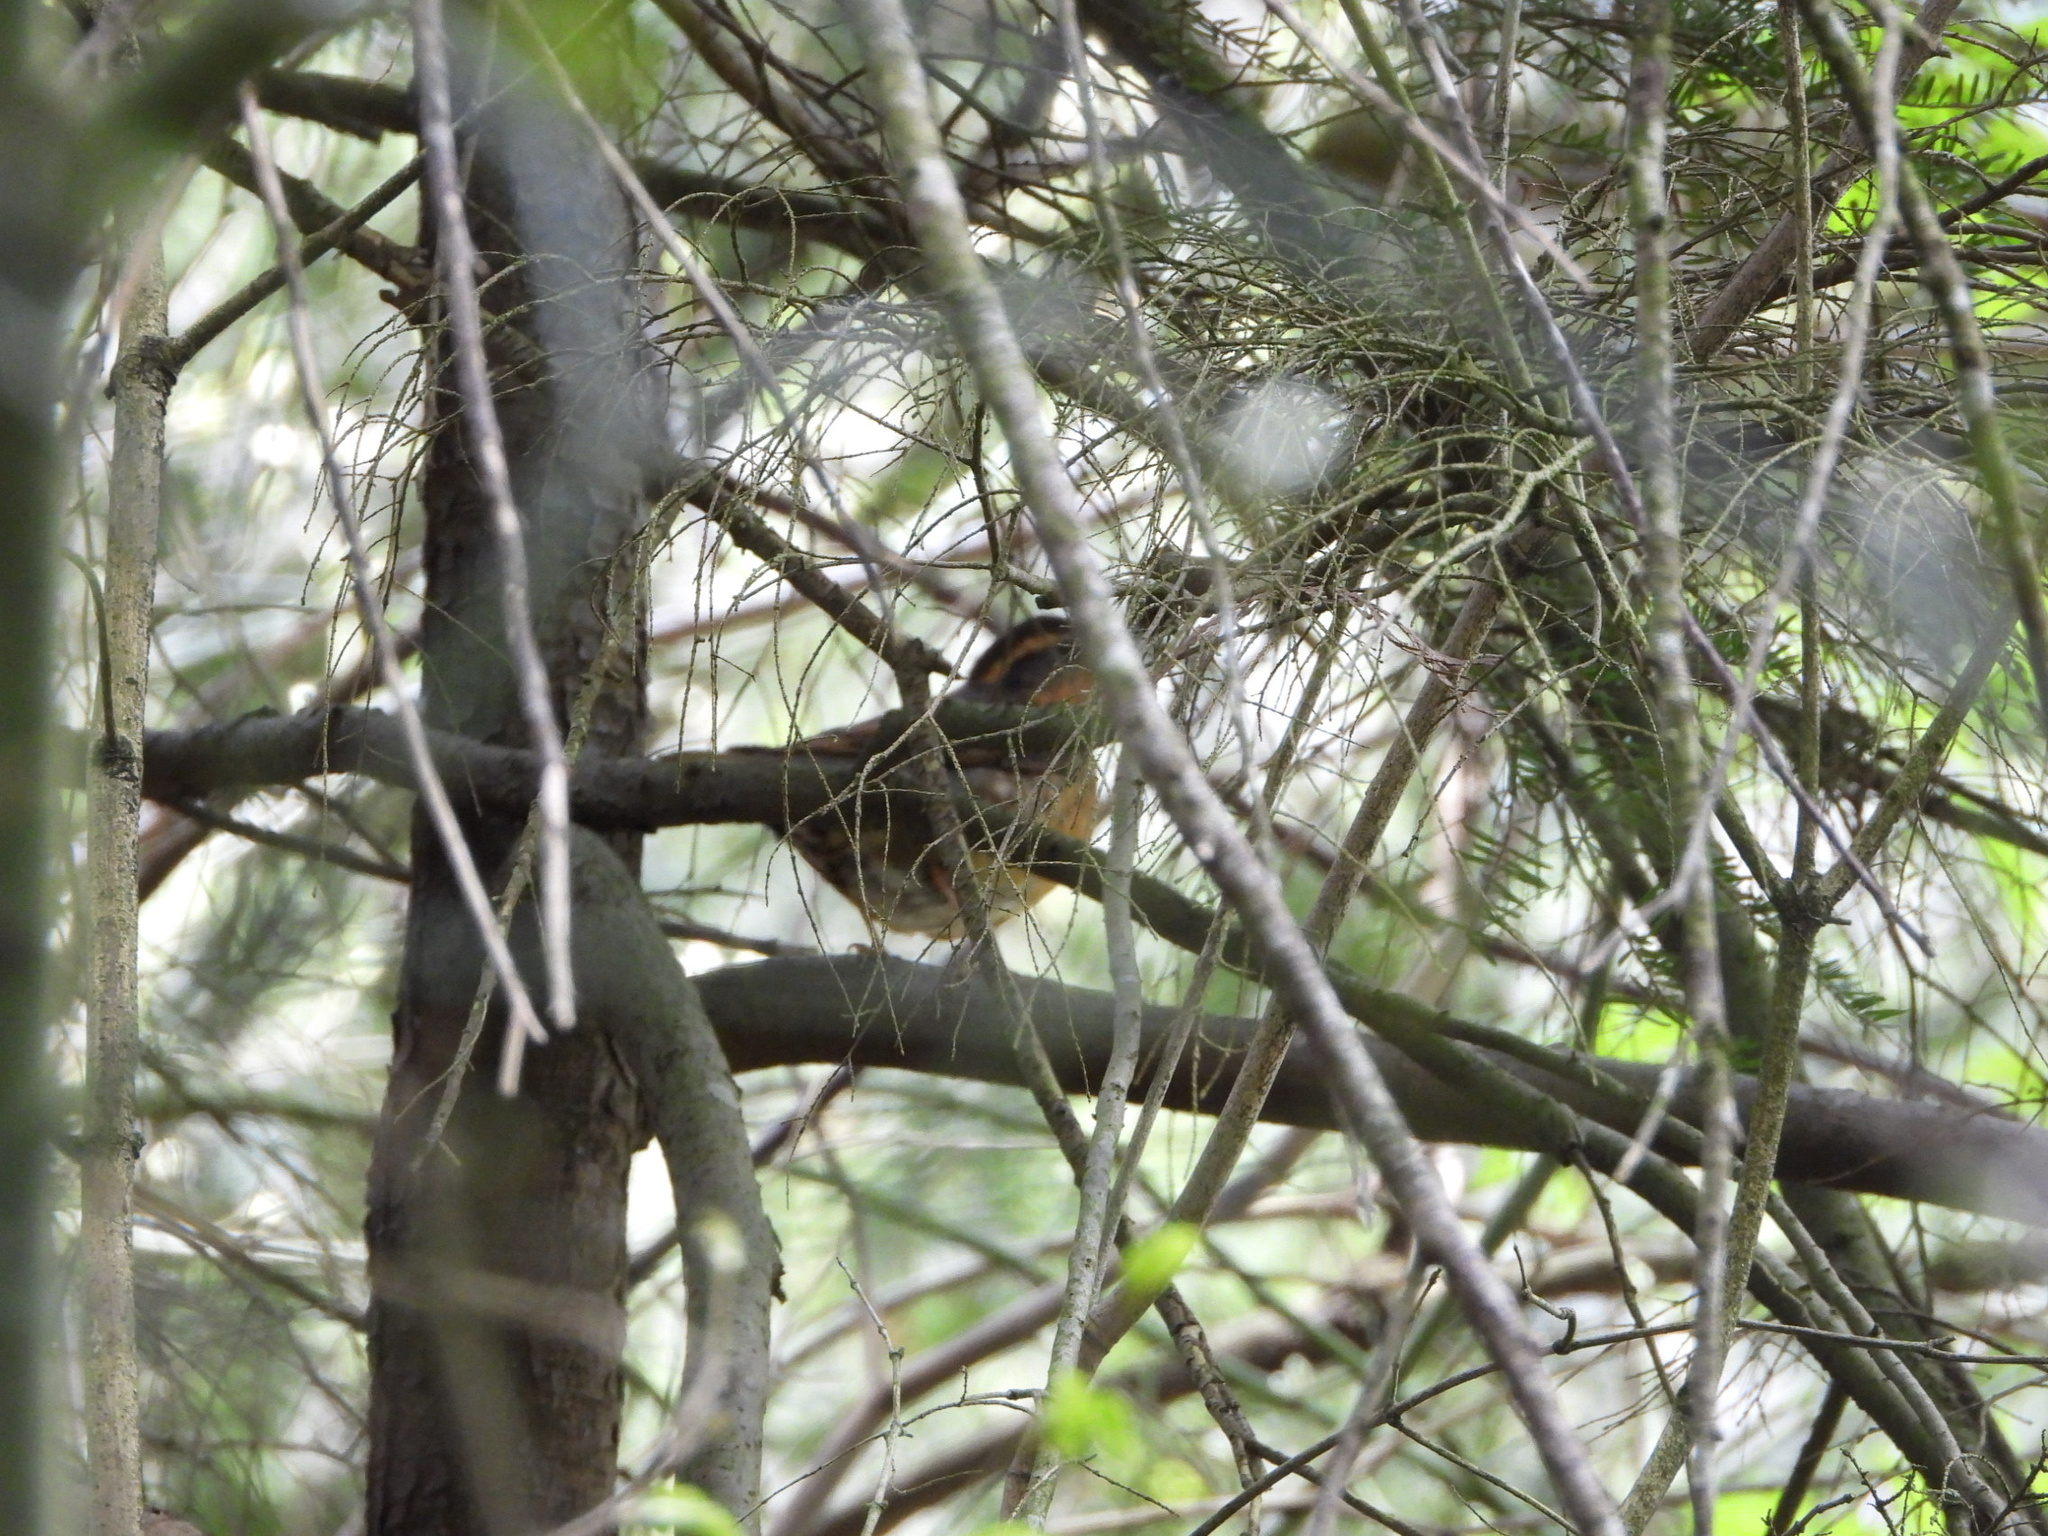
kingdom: Animalia
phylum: Chordata
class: Aves
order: Passeriformes
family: Turdidae
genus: Ixoreus
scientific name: Ixoreus naevius
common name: Varied thrush
